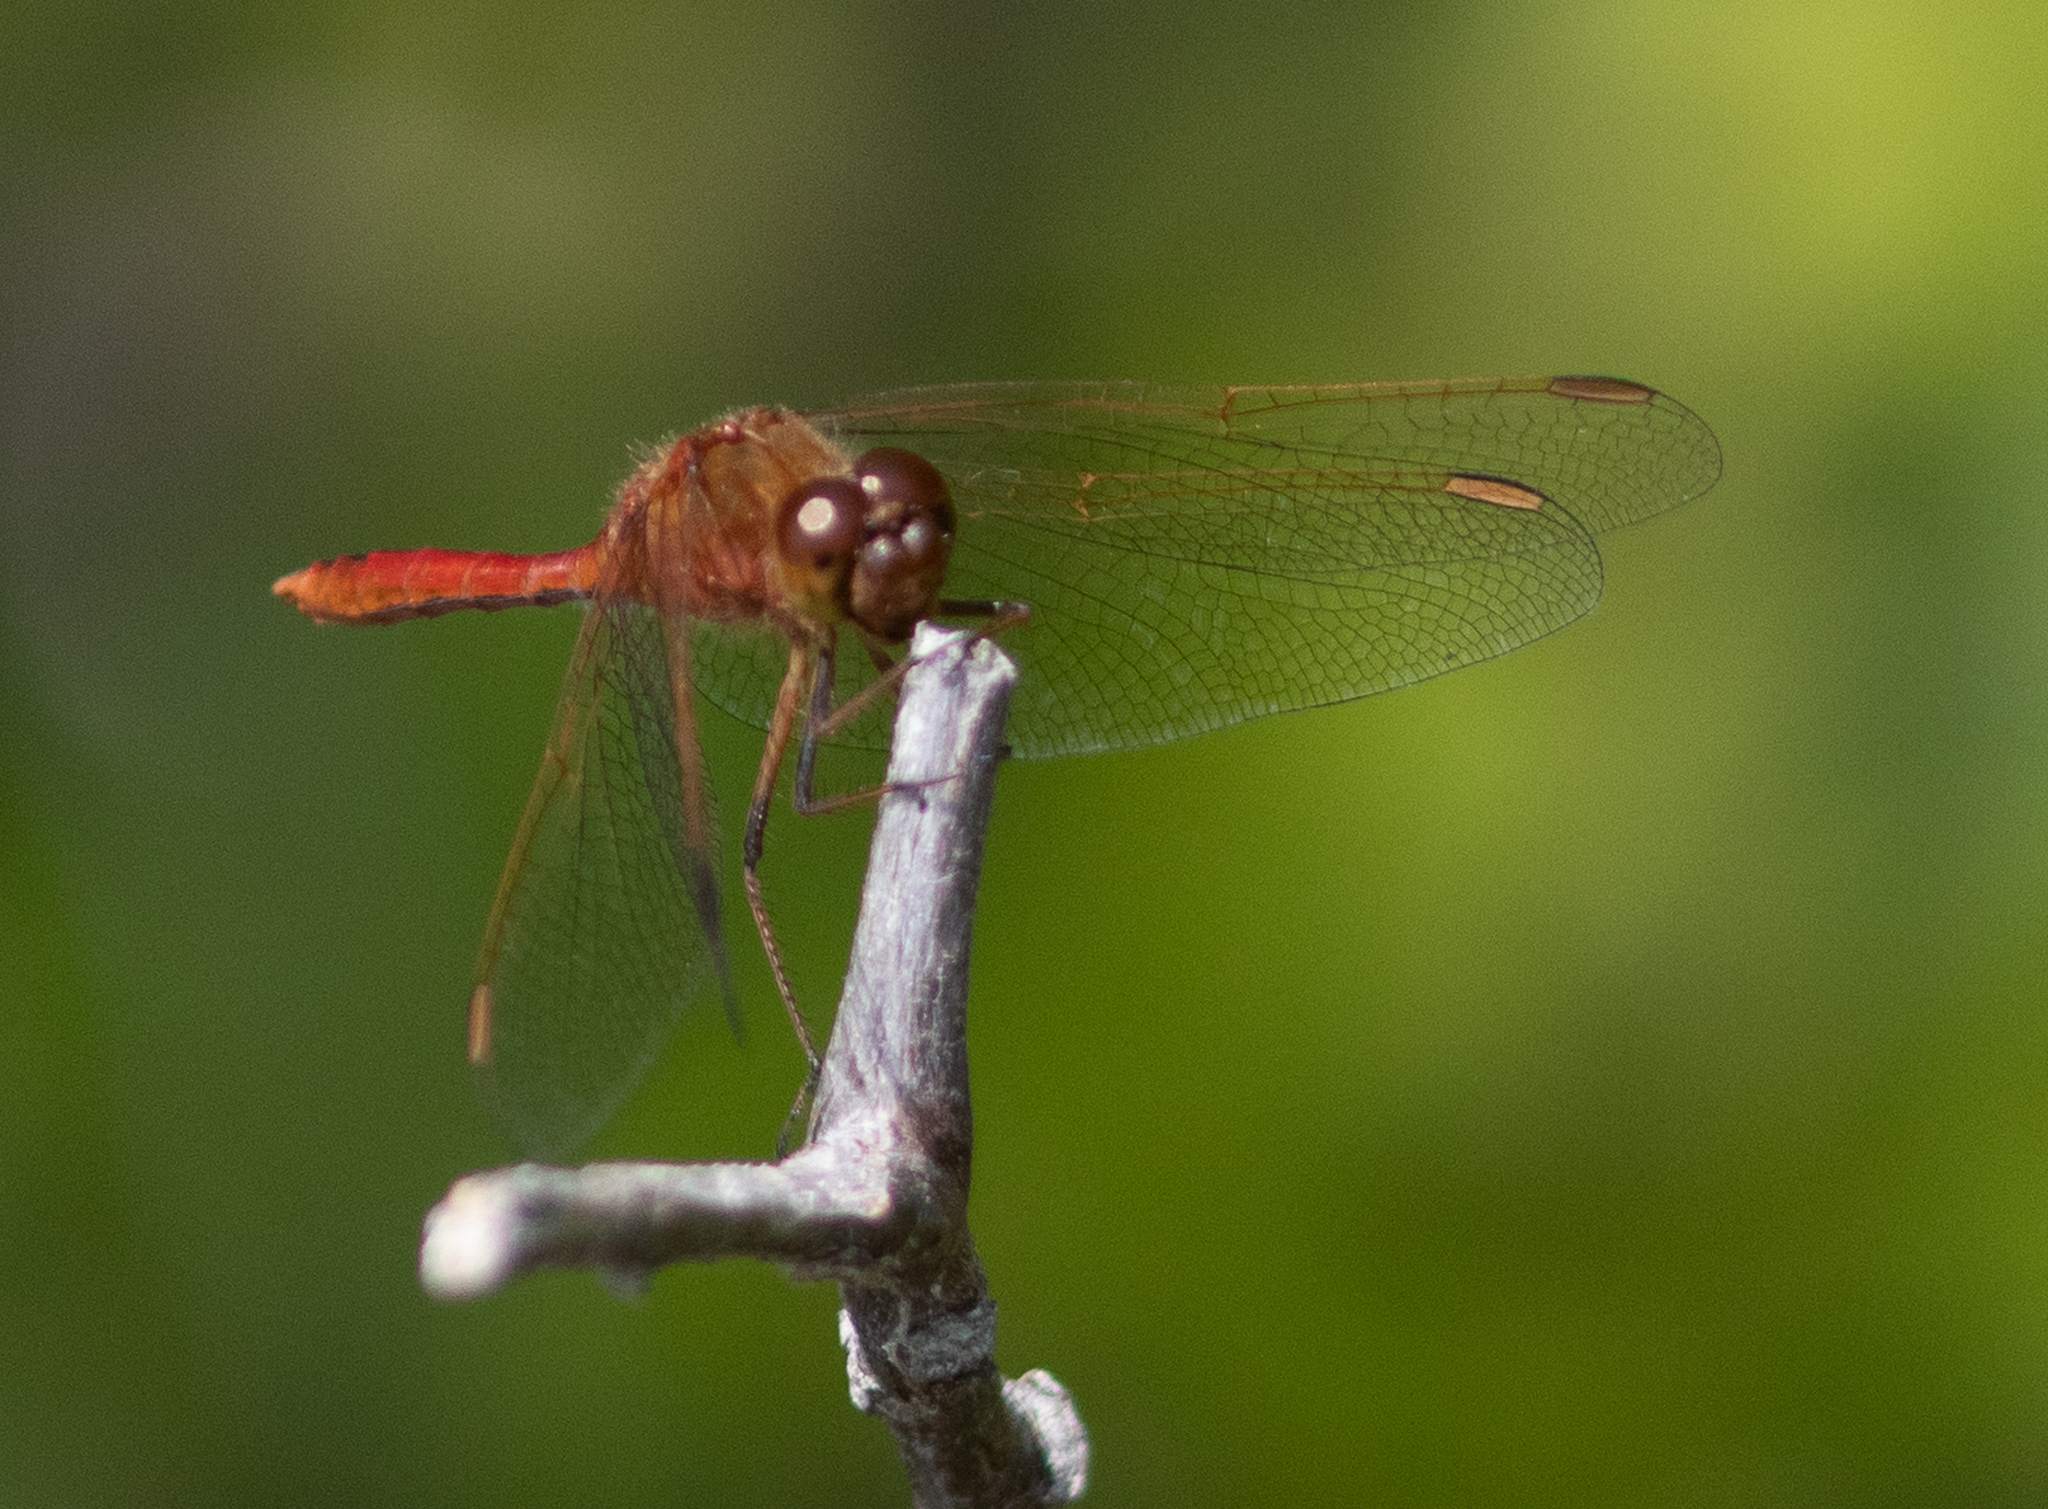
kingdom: Animalia
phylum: Arthropoda
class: Insecta
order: Odonata
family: Libellulidae
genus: Sympetrum
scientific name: Sympetrum costiferum
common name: Saffron-winged meadowhawk
